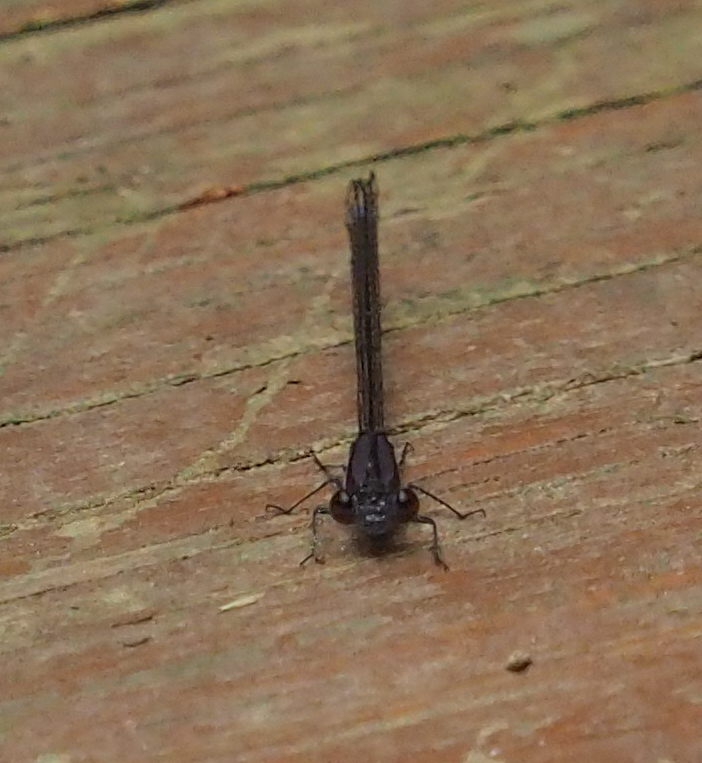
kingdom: Animalia
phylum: Arthropoda
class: Insecta
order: Odonata
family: Coenagrionidae
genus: Argia
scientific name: Argia tibialis
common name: Blue-tipped dancer
